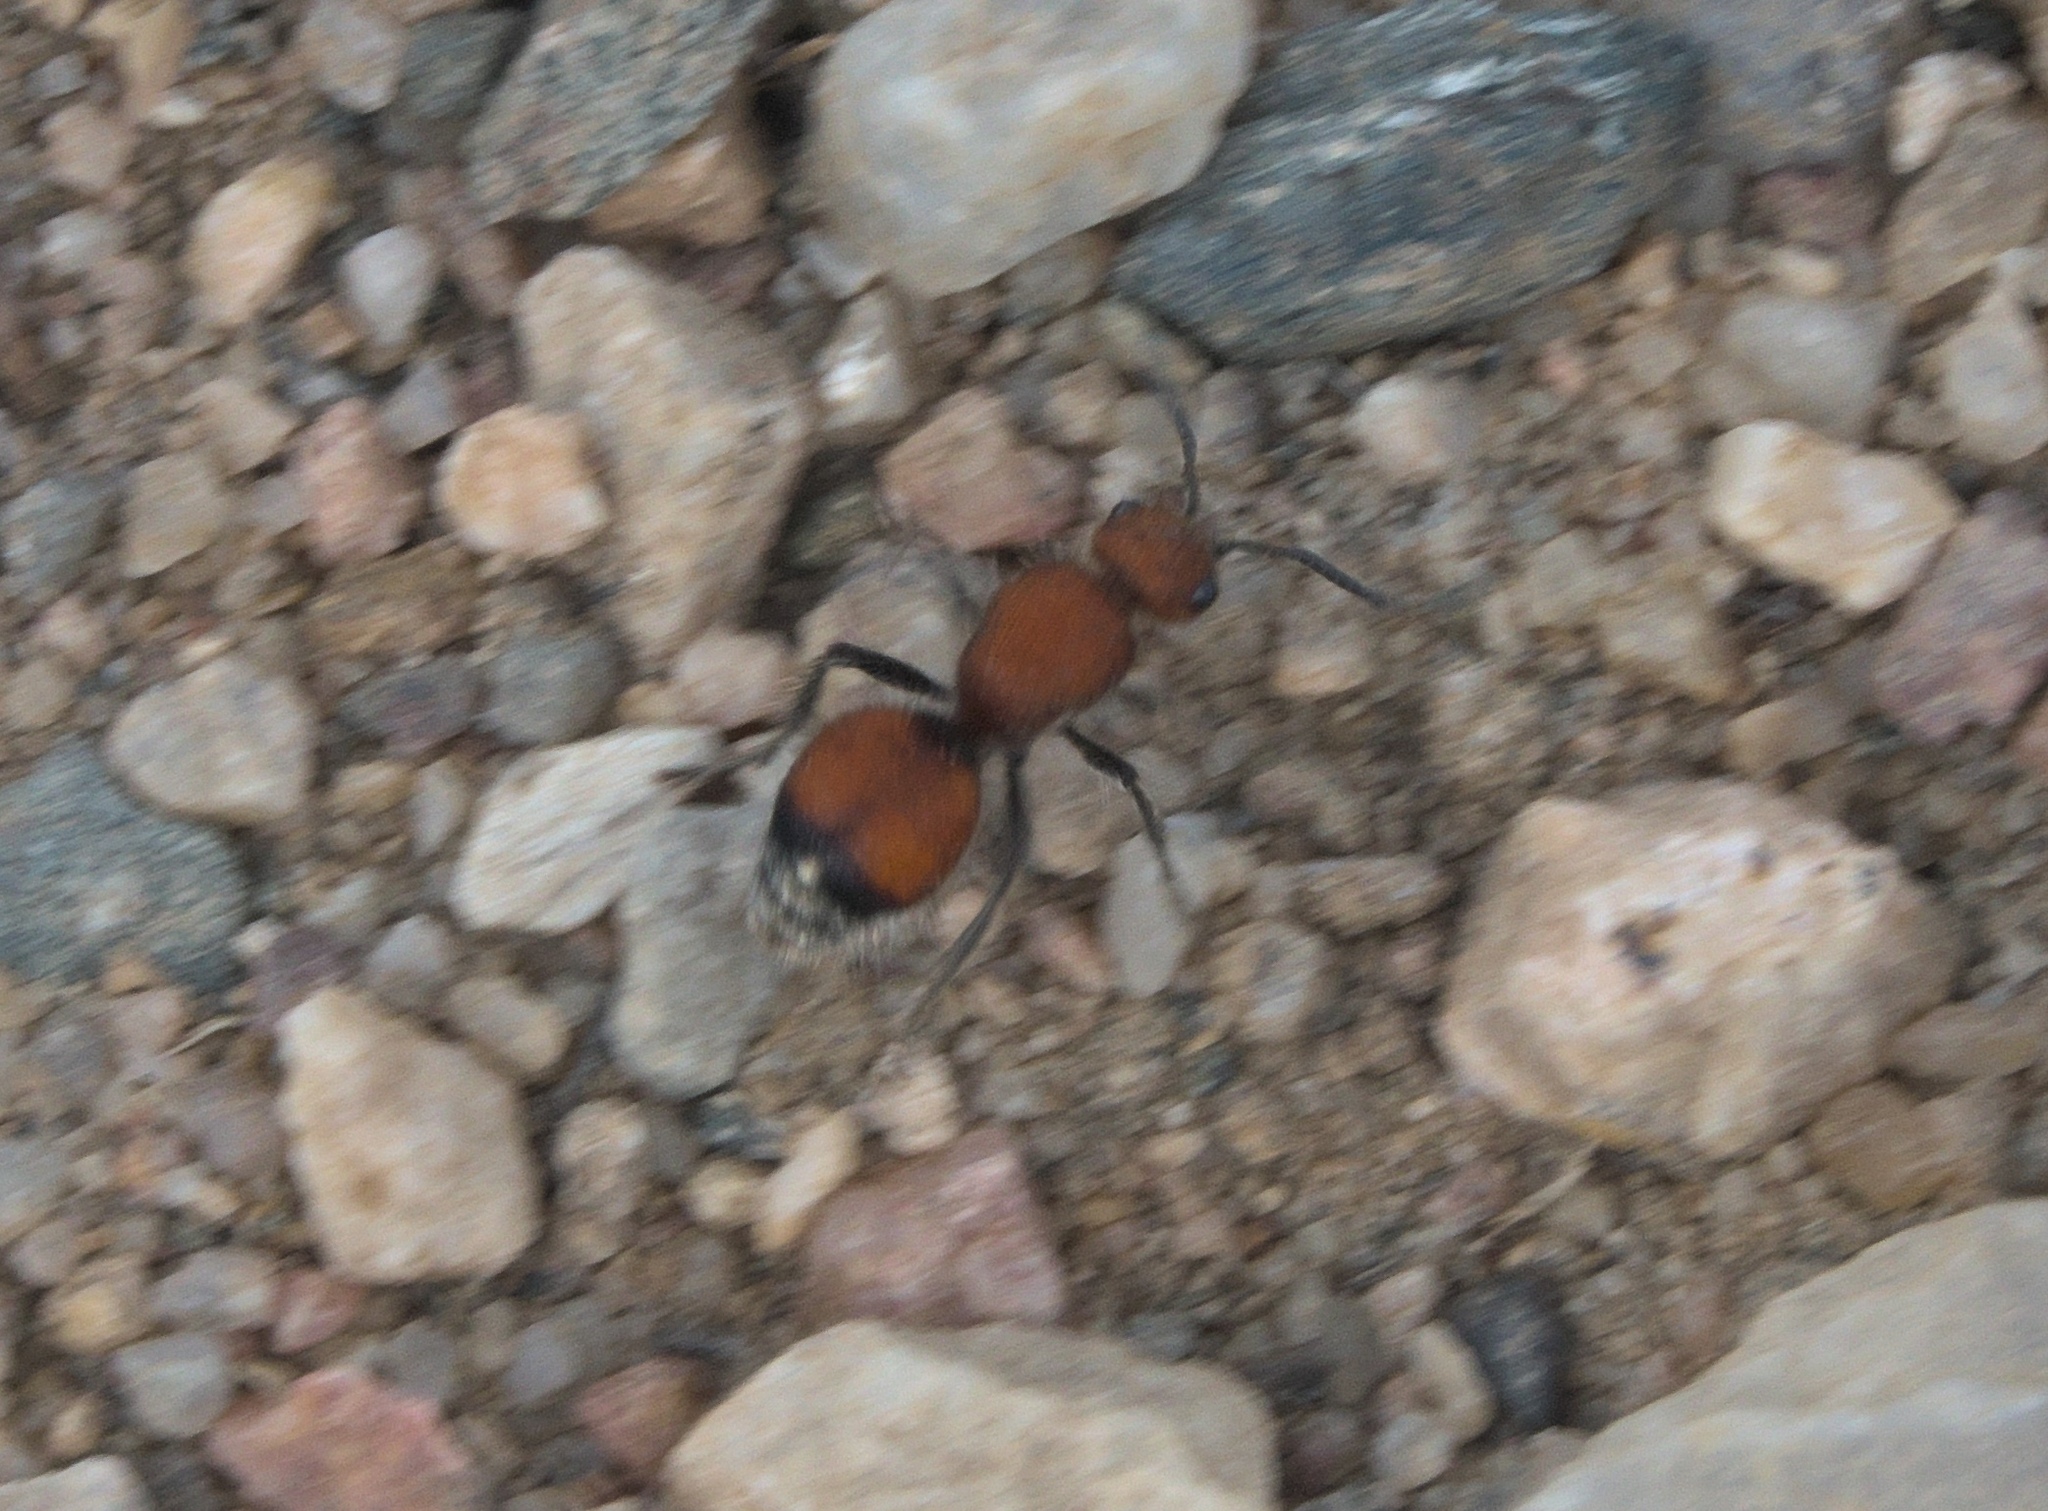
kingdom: Animalia
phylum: Arthropoda
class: Insecta
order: Hymenoptera
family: Mutillidae
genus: Dasymutilla
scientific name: Dasymutilla
